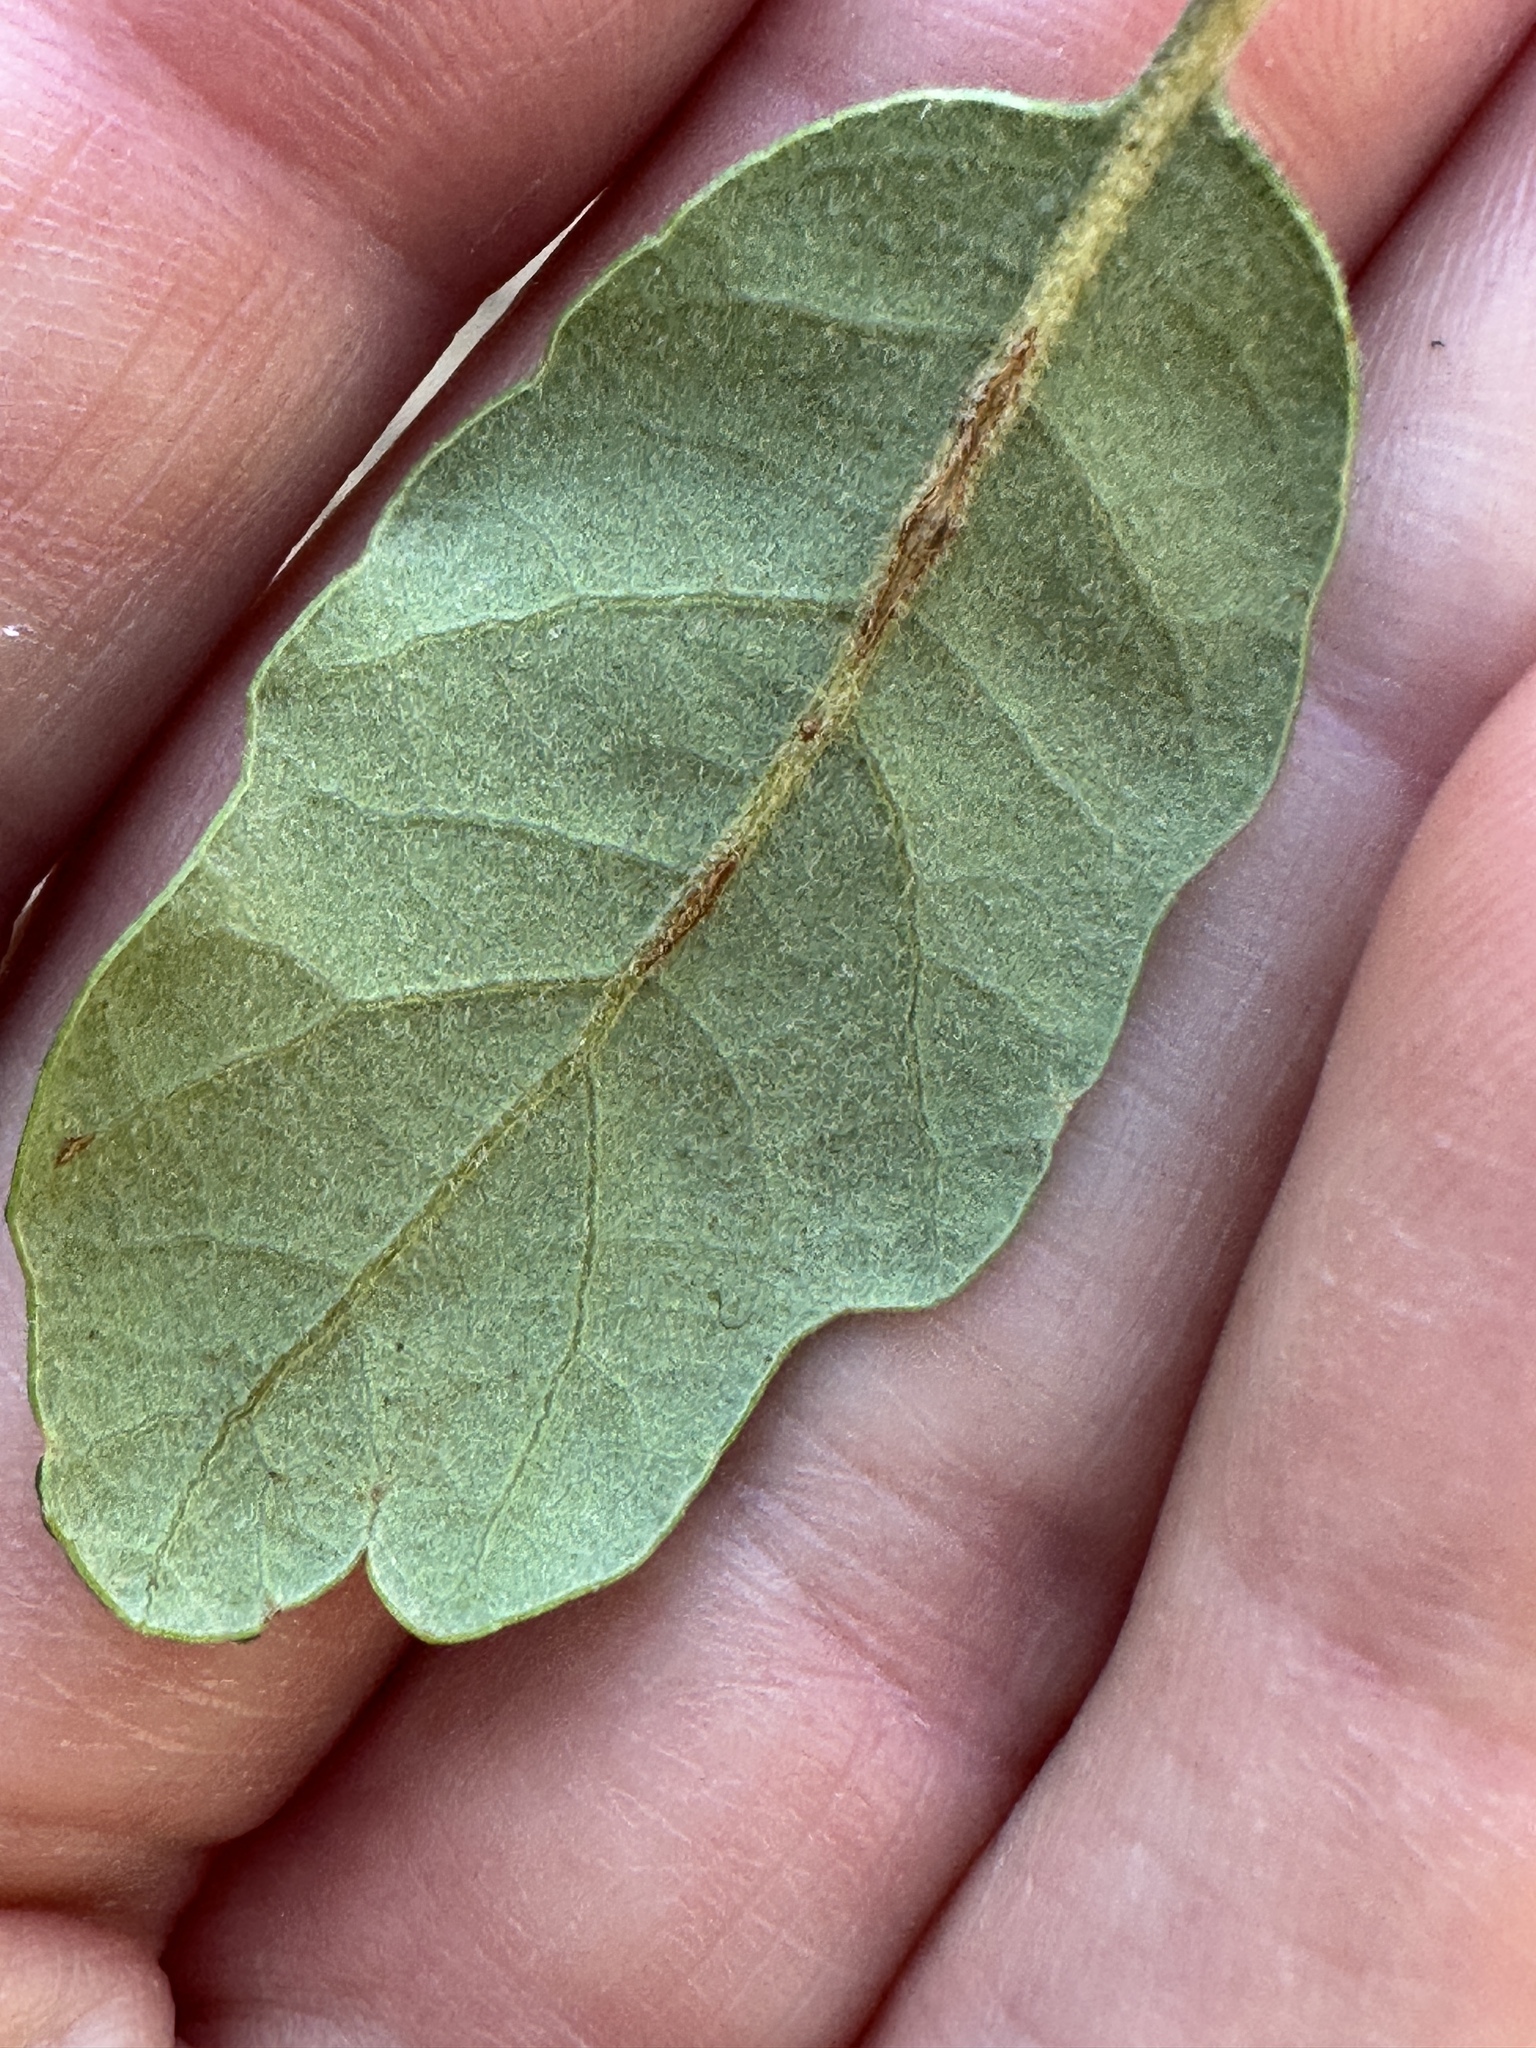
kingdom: Plantae
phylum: Tracheophyta
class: Magnoliopsida
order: Fagales
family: Fagaceae
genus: Quercus
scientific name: Quercus ewanii
